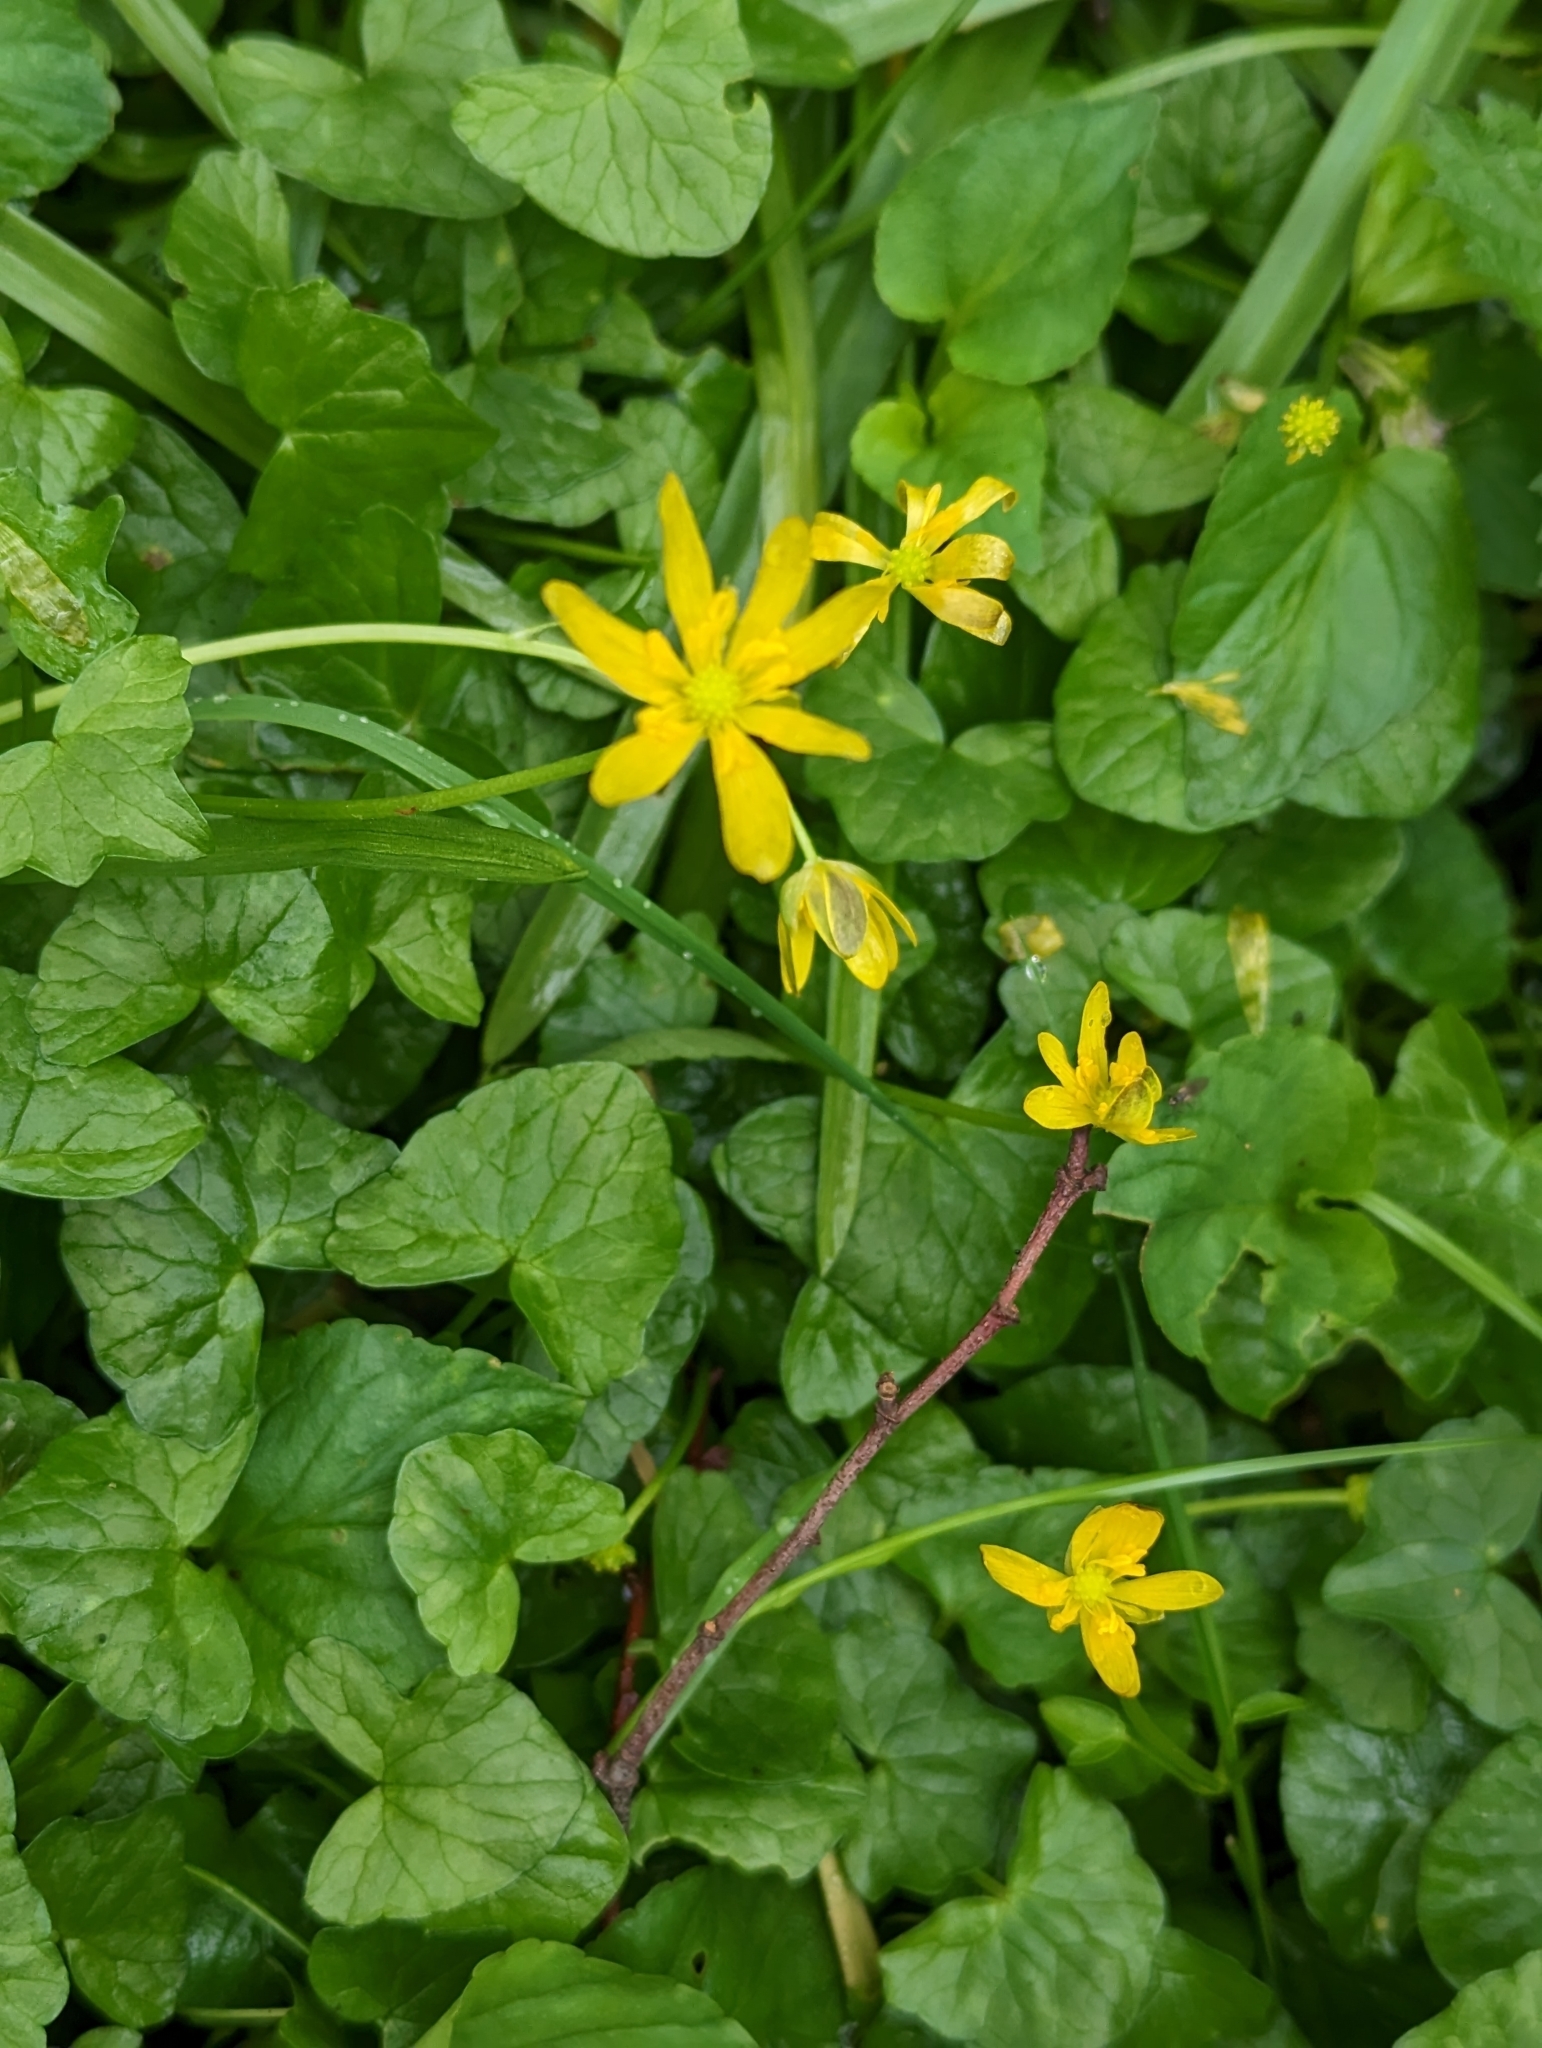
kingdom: Plantae
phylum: Tracheophyta
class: Magnoliopsida
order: Ranunculales
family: Ranunculaceae
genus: Ficaria
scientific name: Ficaria verna
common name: Lesser celandine
